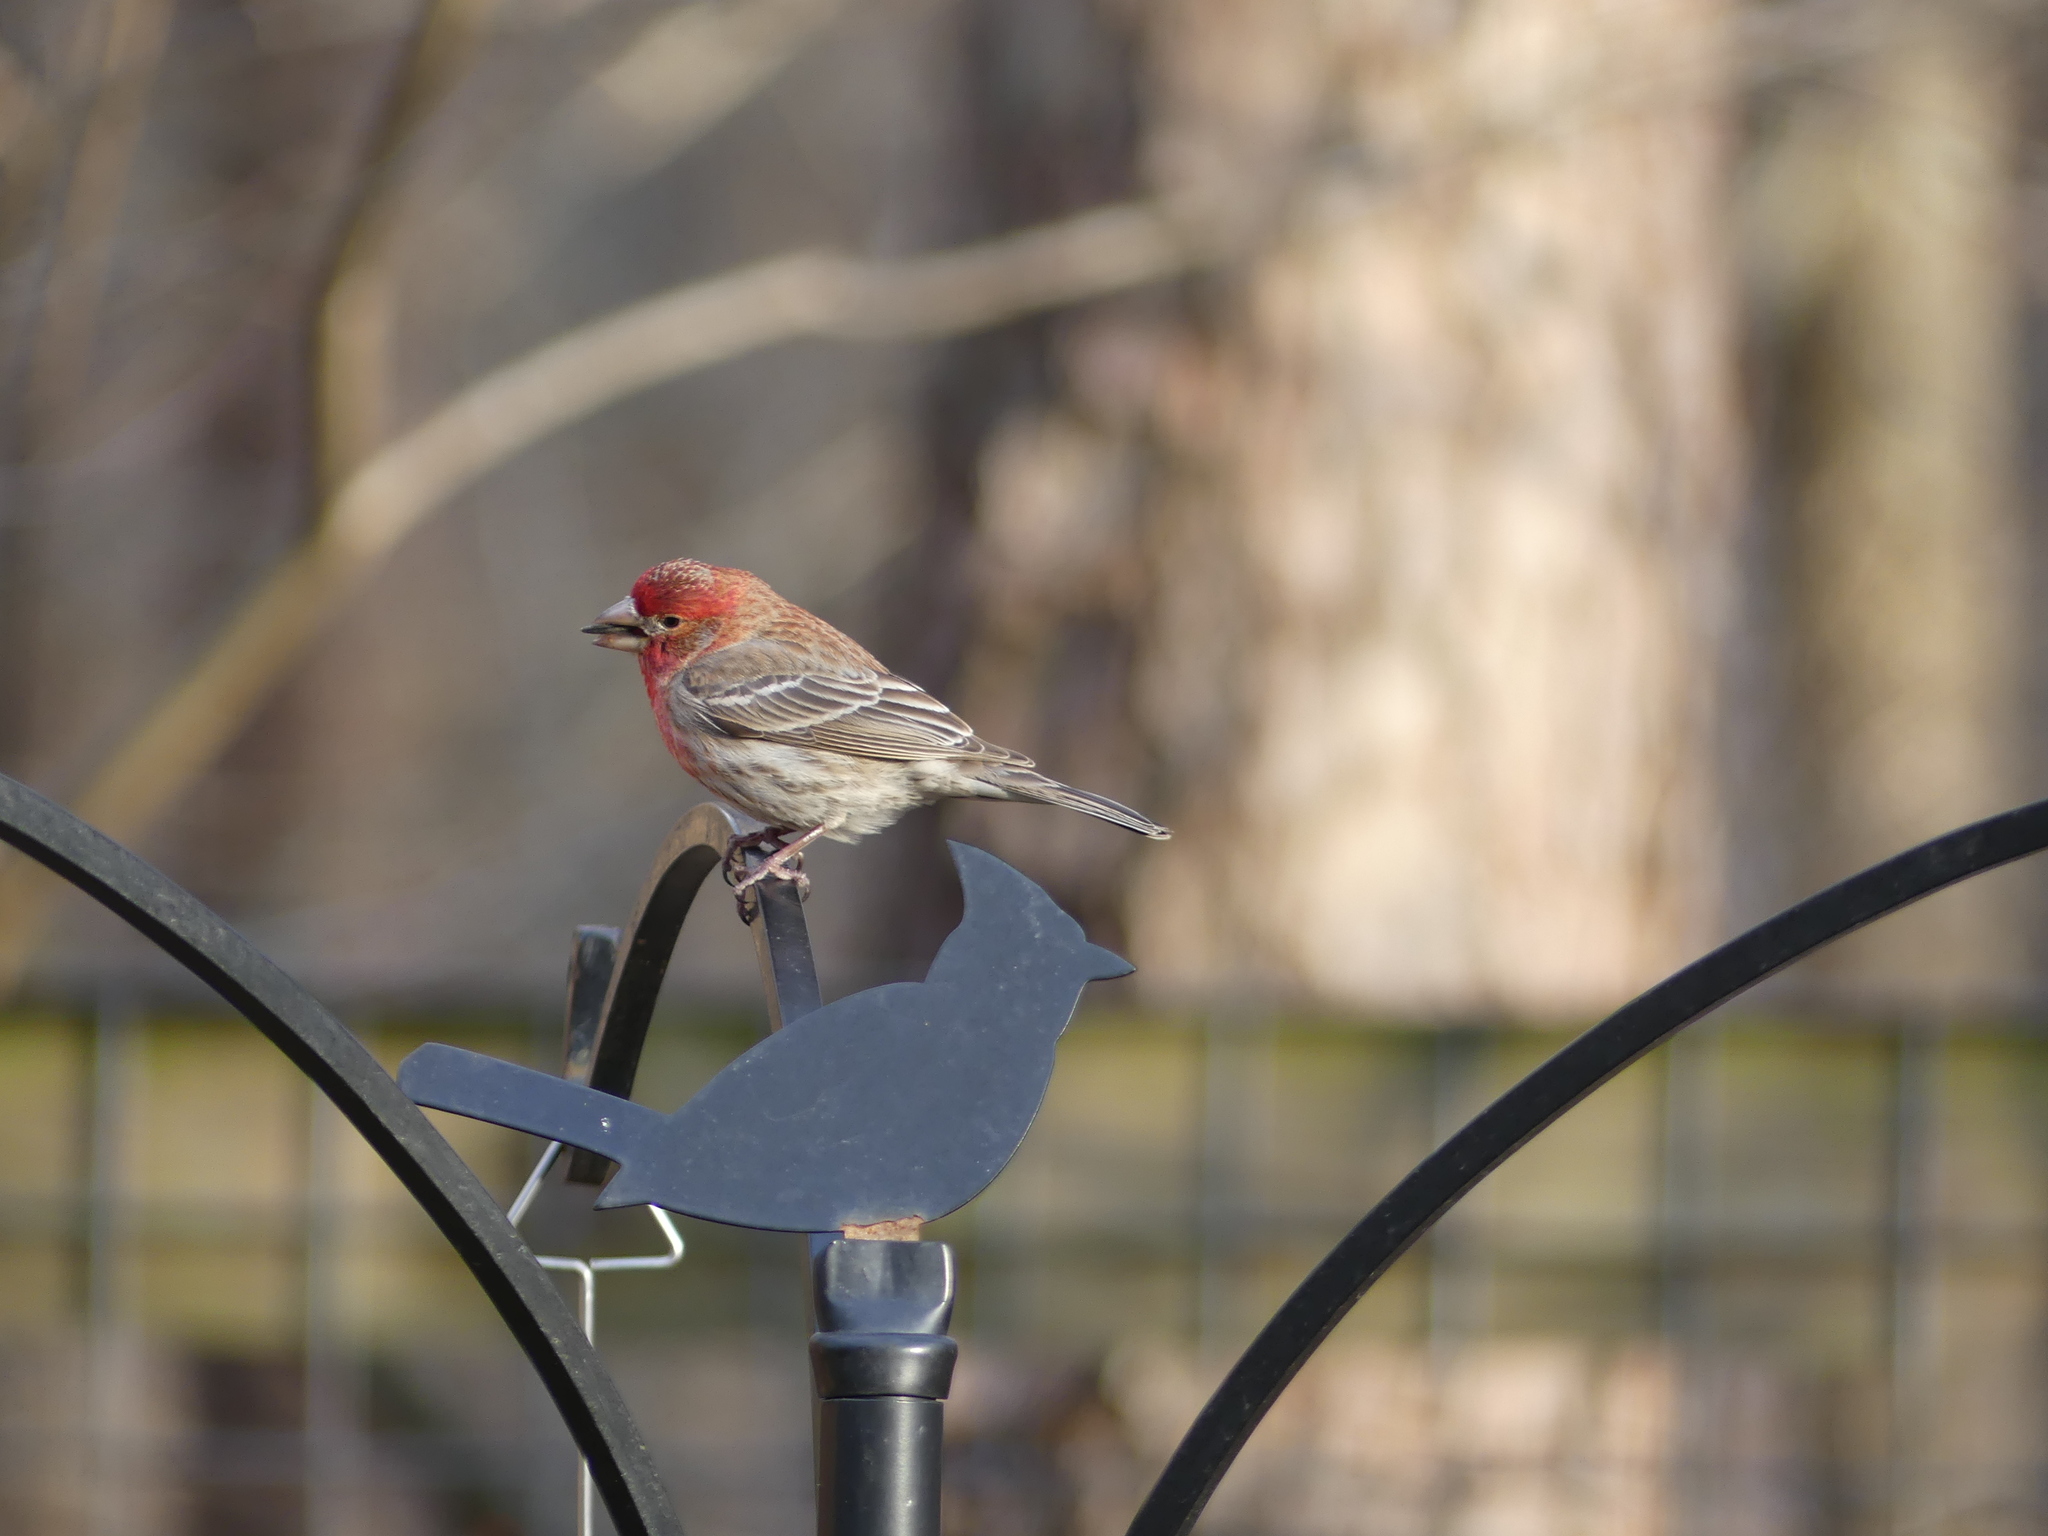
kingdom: Animalia
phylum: Chordata
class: Aves
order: Passeriformes
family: Fringillidae
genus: Haemorhous
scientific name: Haemorhous mexicanus
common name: House finch
